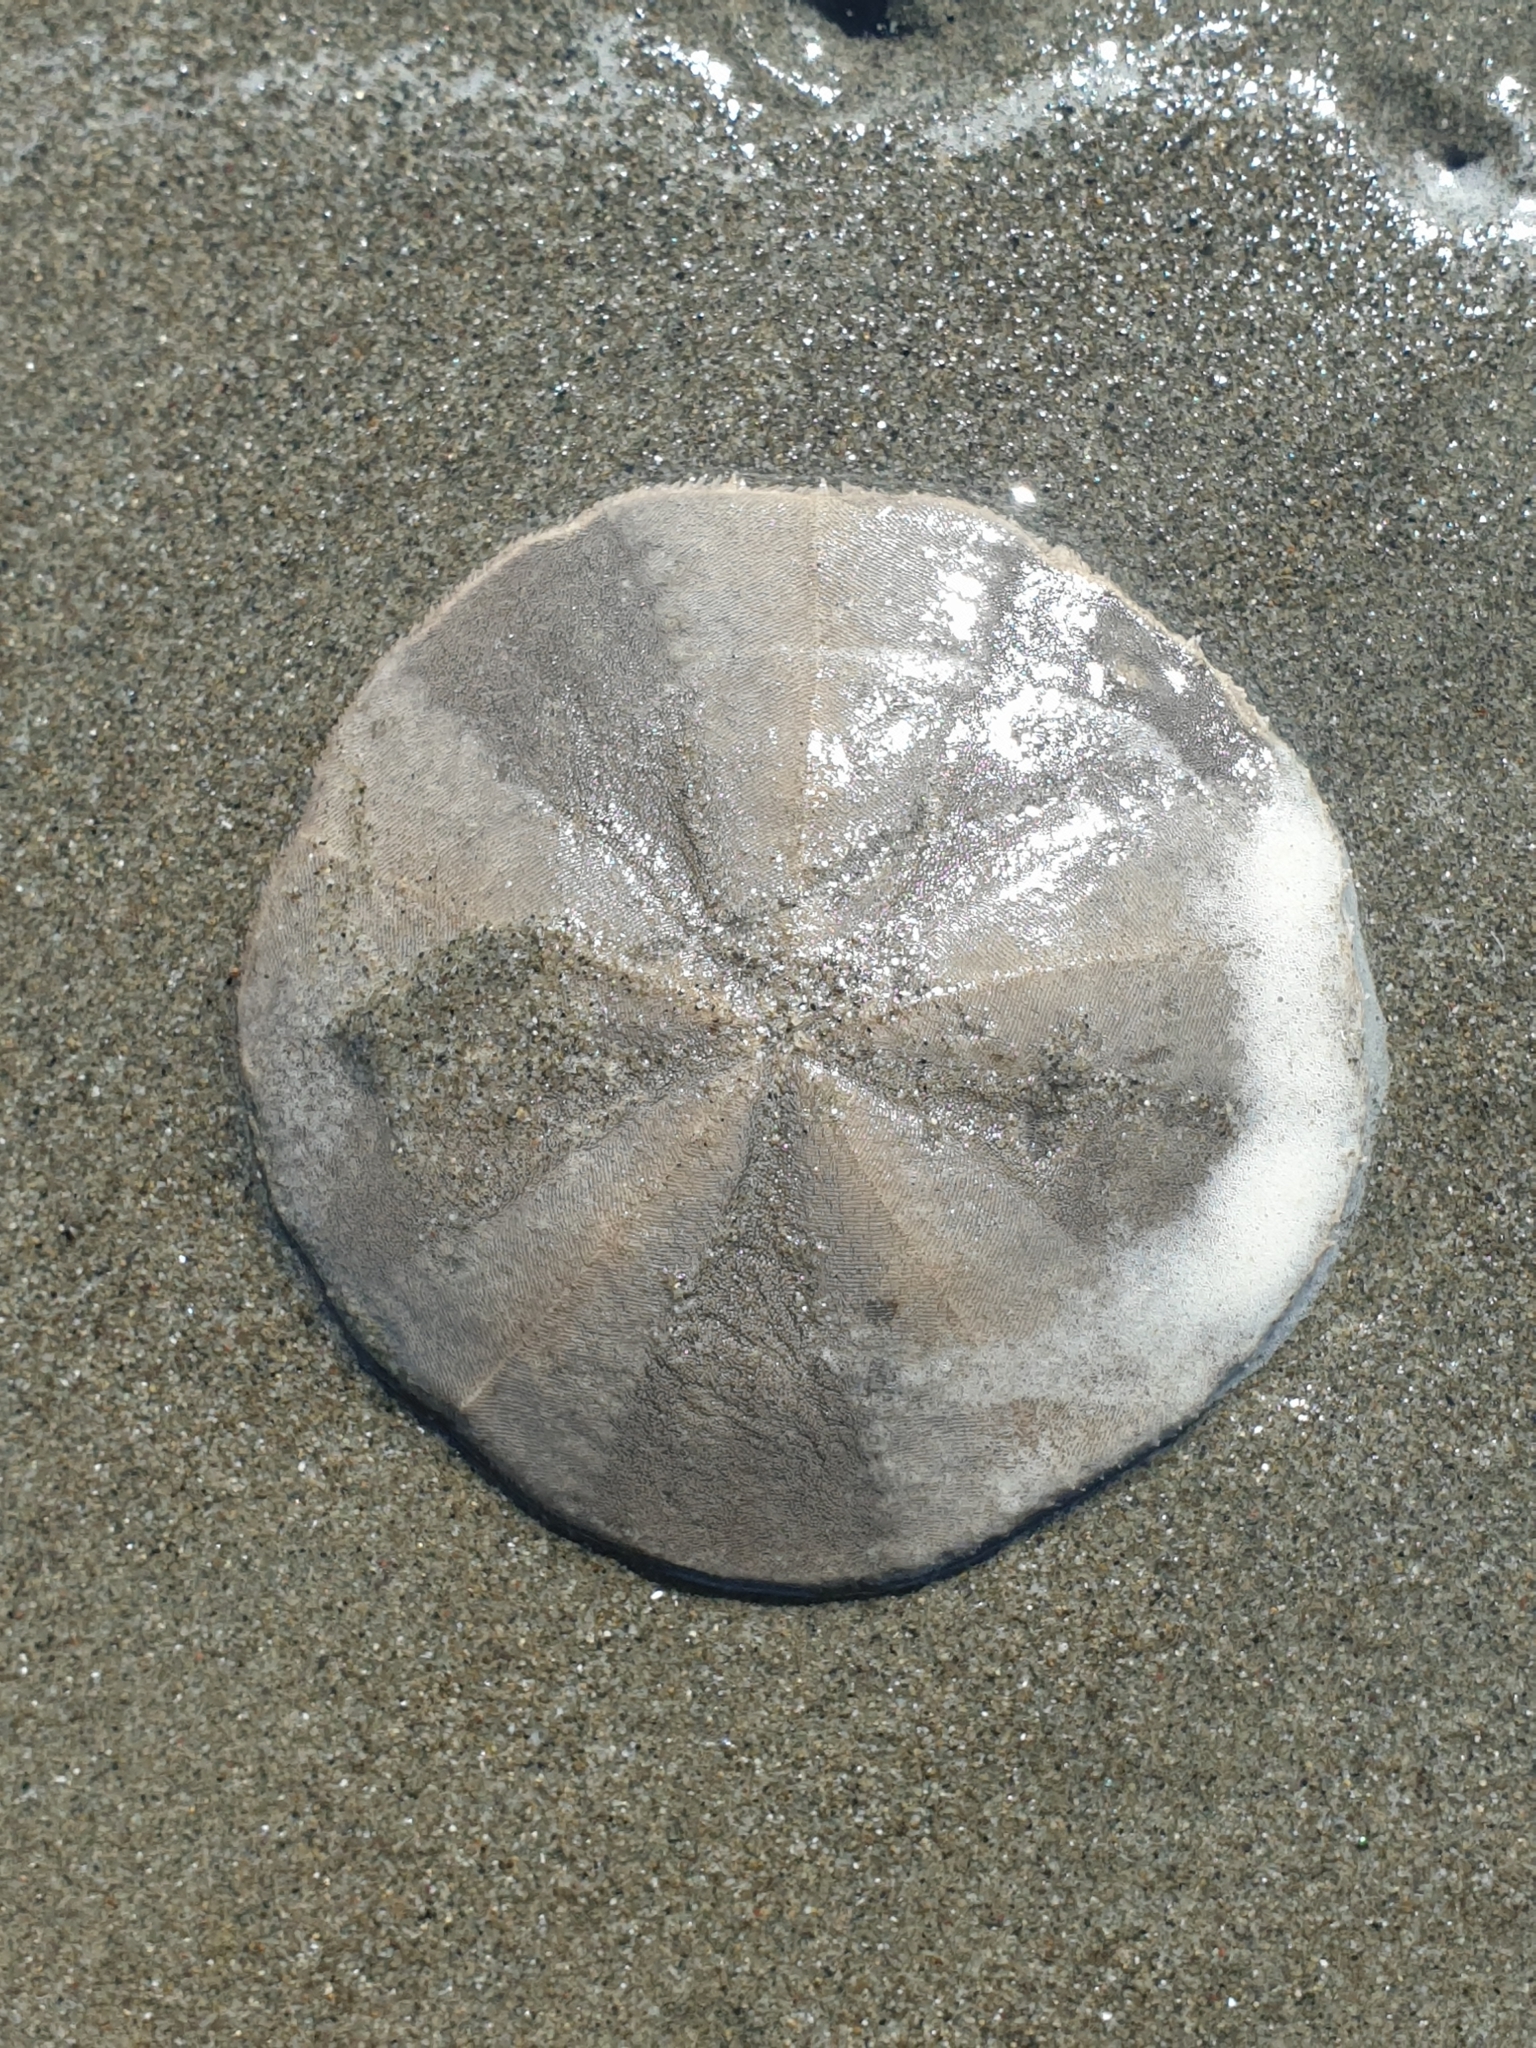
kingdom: Animalia
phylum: Echinodermata
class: Echinoidea
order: Clypeasteroida
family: Clypeasteridae
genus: Fellaster
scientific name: Fellaster zelandiae
